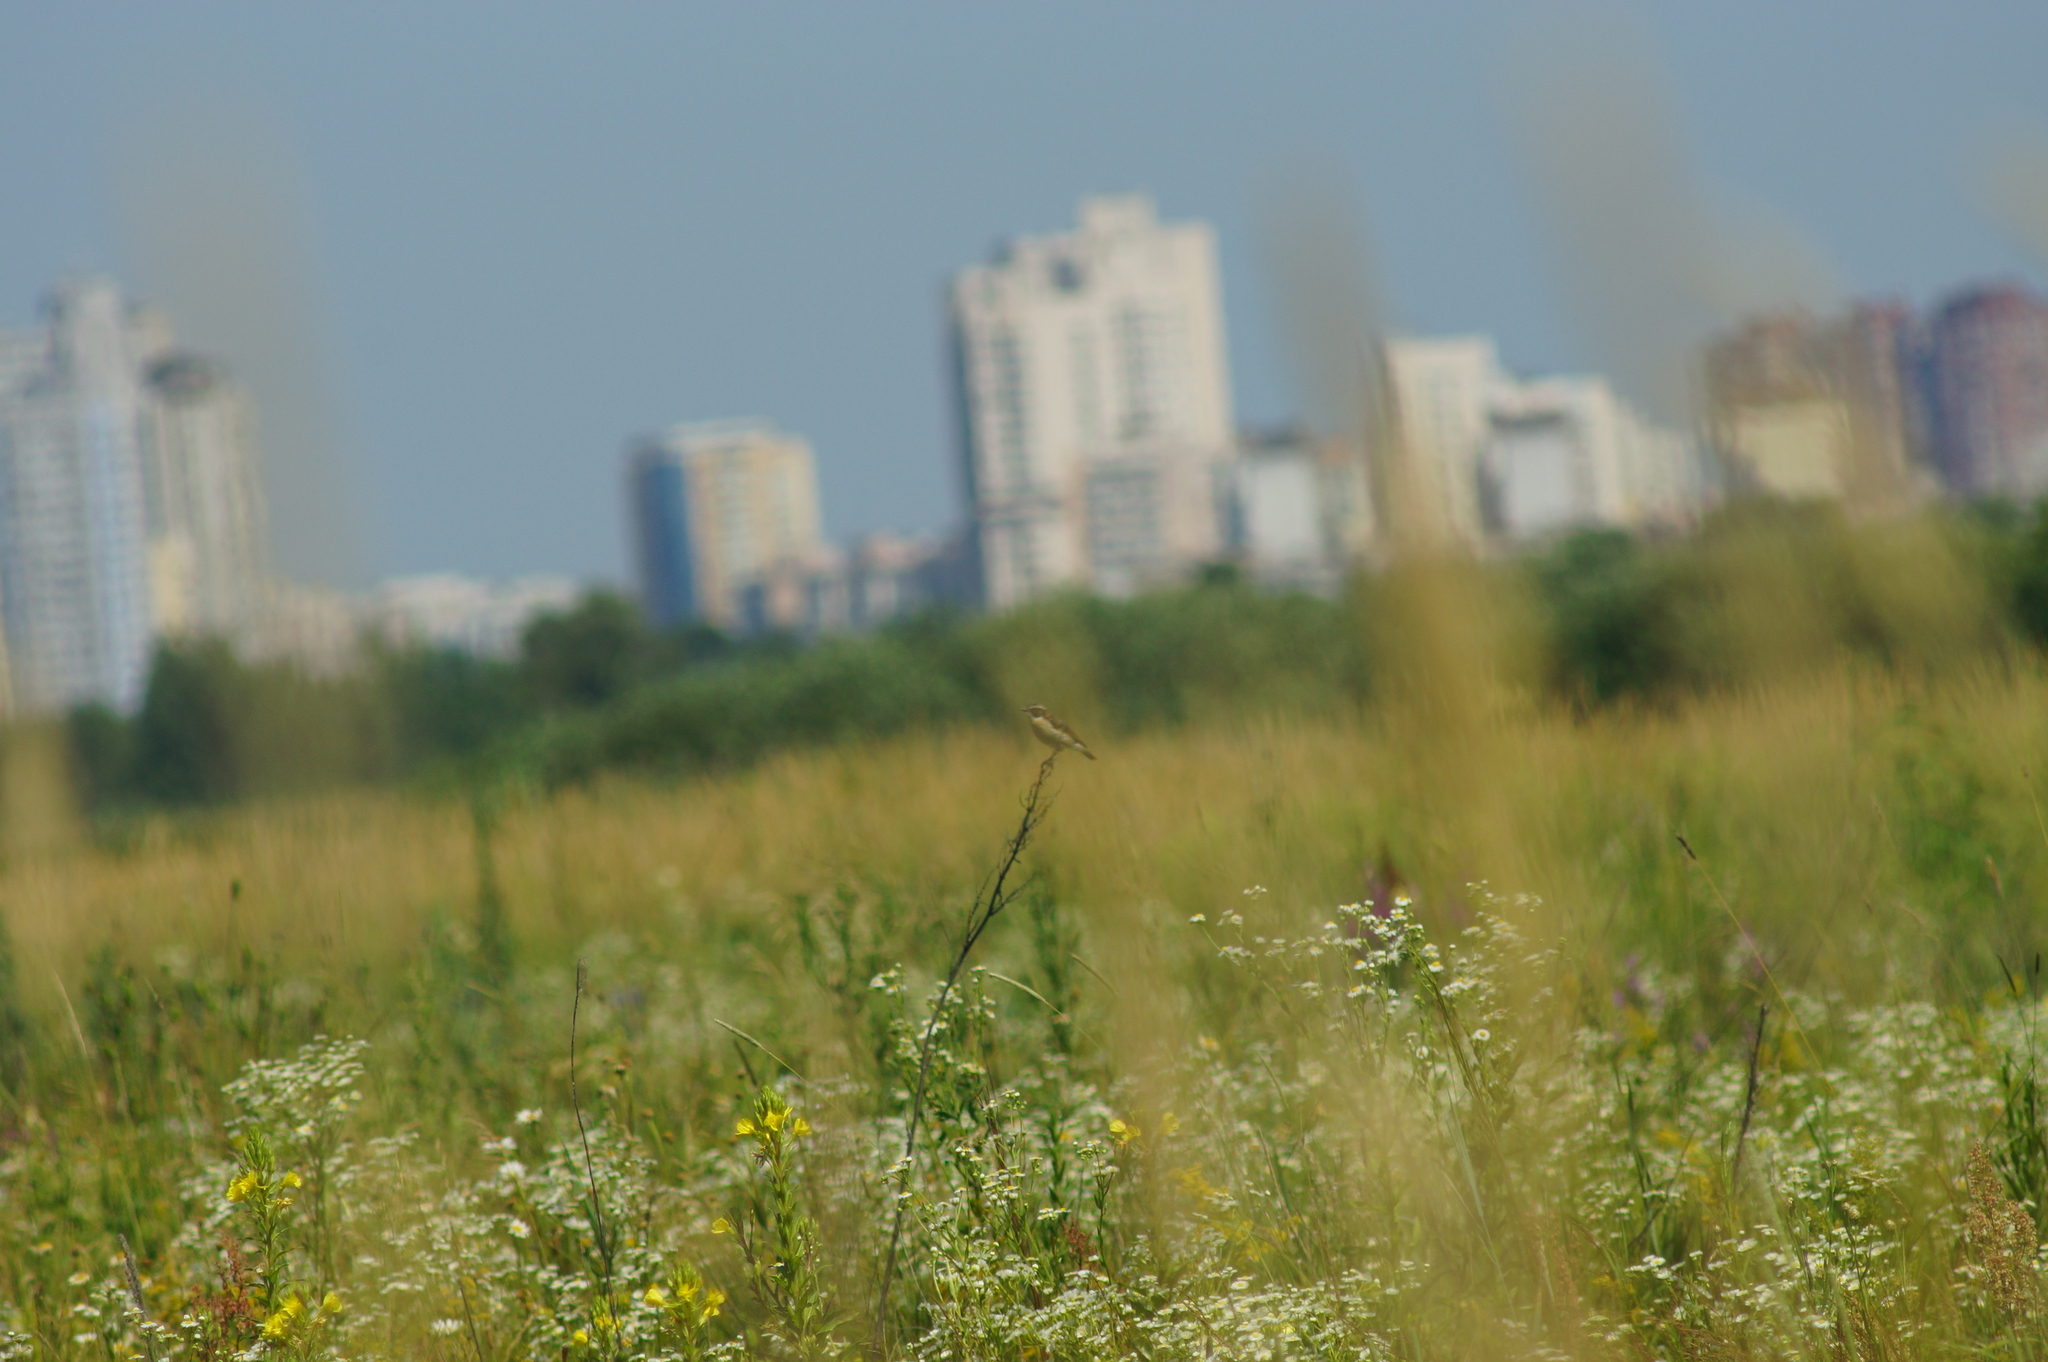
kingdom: Animalia
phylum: Chordata
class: Aves
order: Passeriformes
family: Muscicapidae
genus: Saxicola
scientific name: Saxicola rubetra
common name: Whinchat
